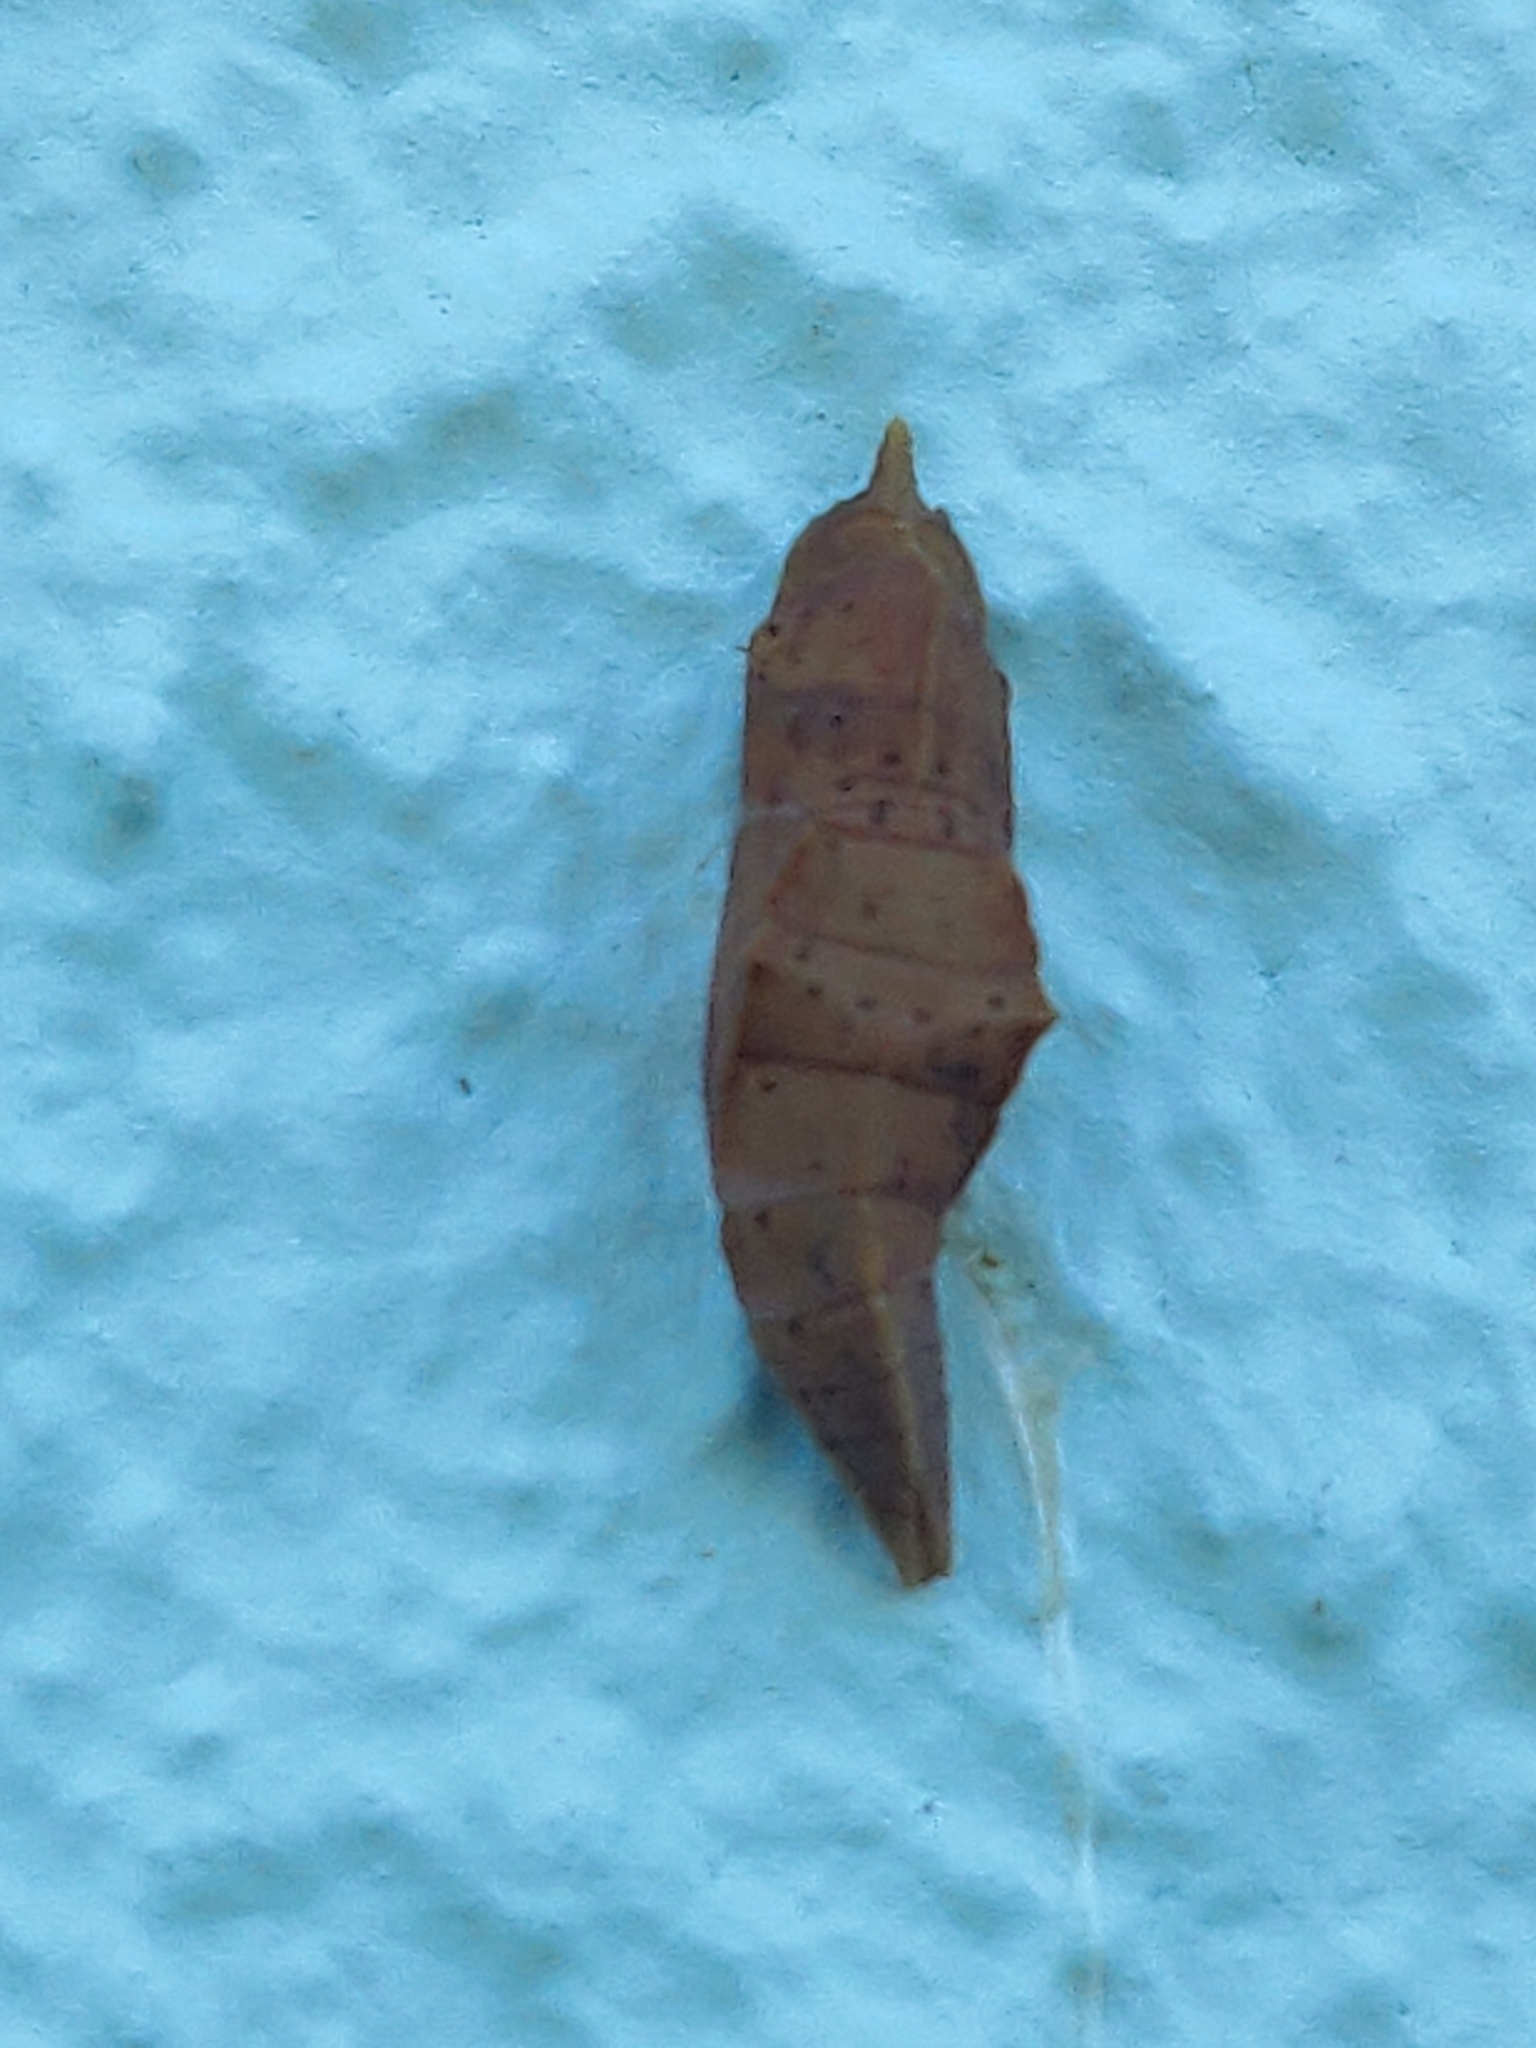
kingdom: Animalia
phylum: Arthropoda
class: Insecta
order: Lepidoptera
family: Pieridae
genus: Pieris
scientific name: Pieris rapae
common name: Small white
